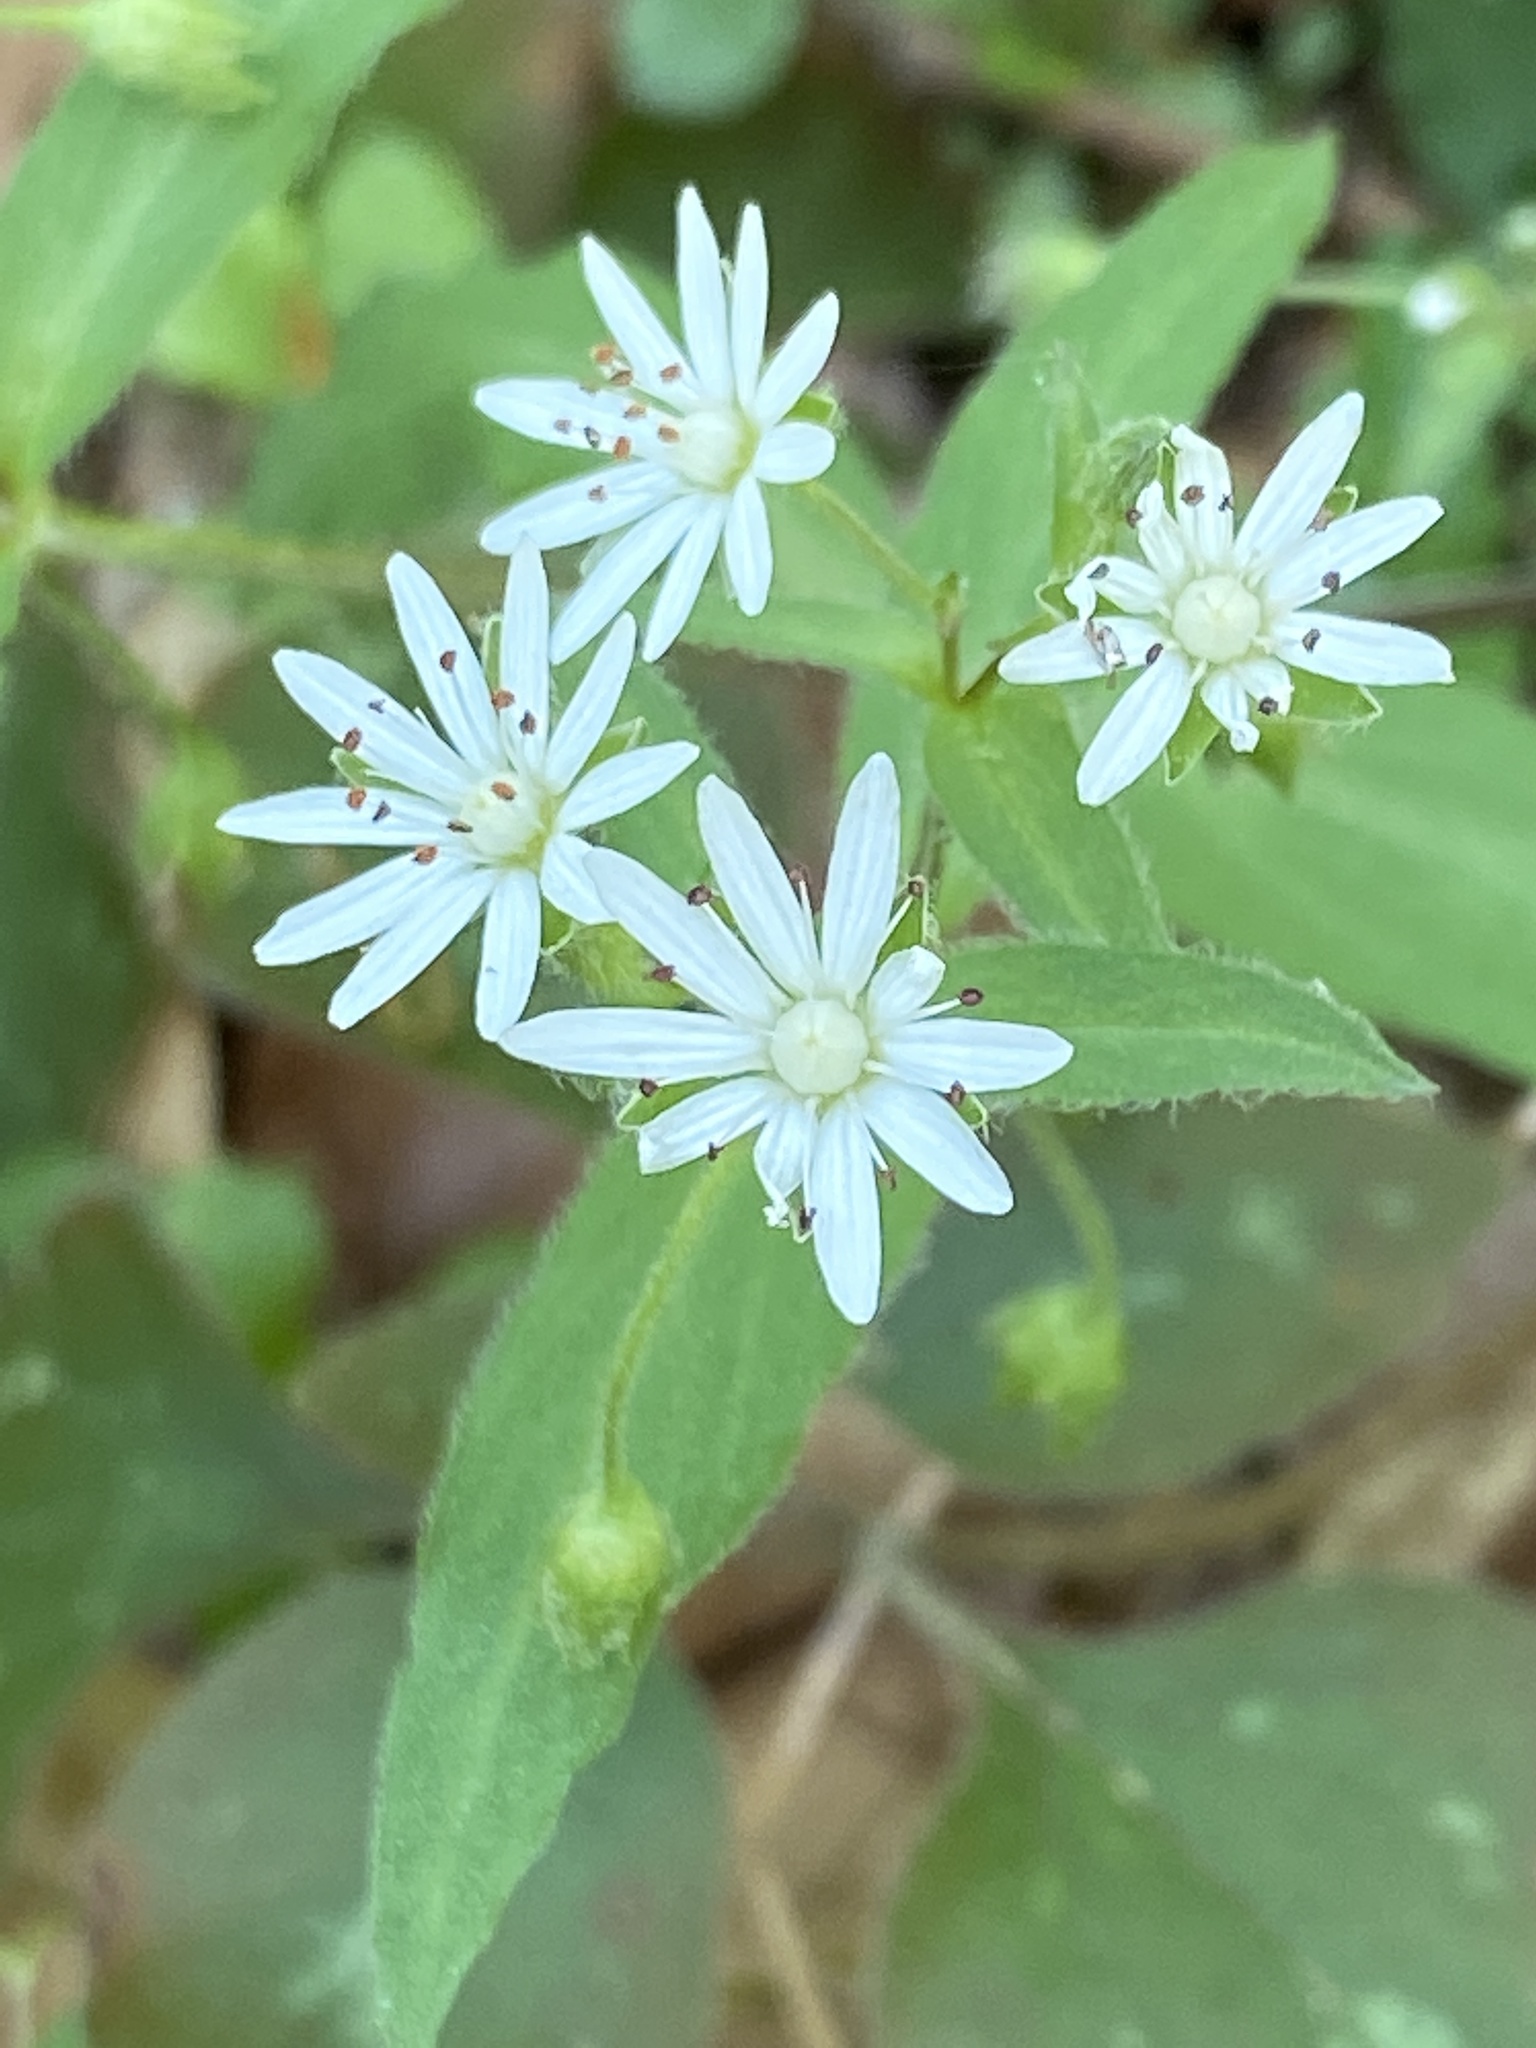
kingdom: Plantae
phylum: Tracheophyta
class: Magnoliopsida
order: Caryophyllales
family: Caryophyllaceae
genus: Stellaria
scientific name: Stellaria pubera
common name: Star chickweed
